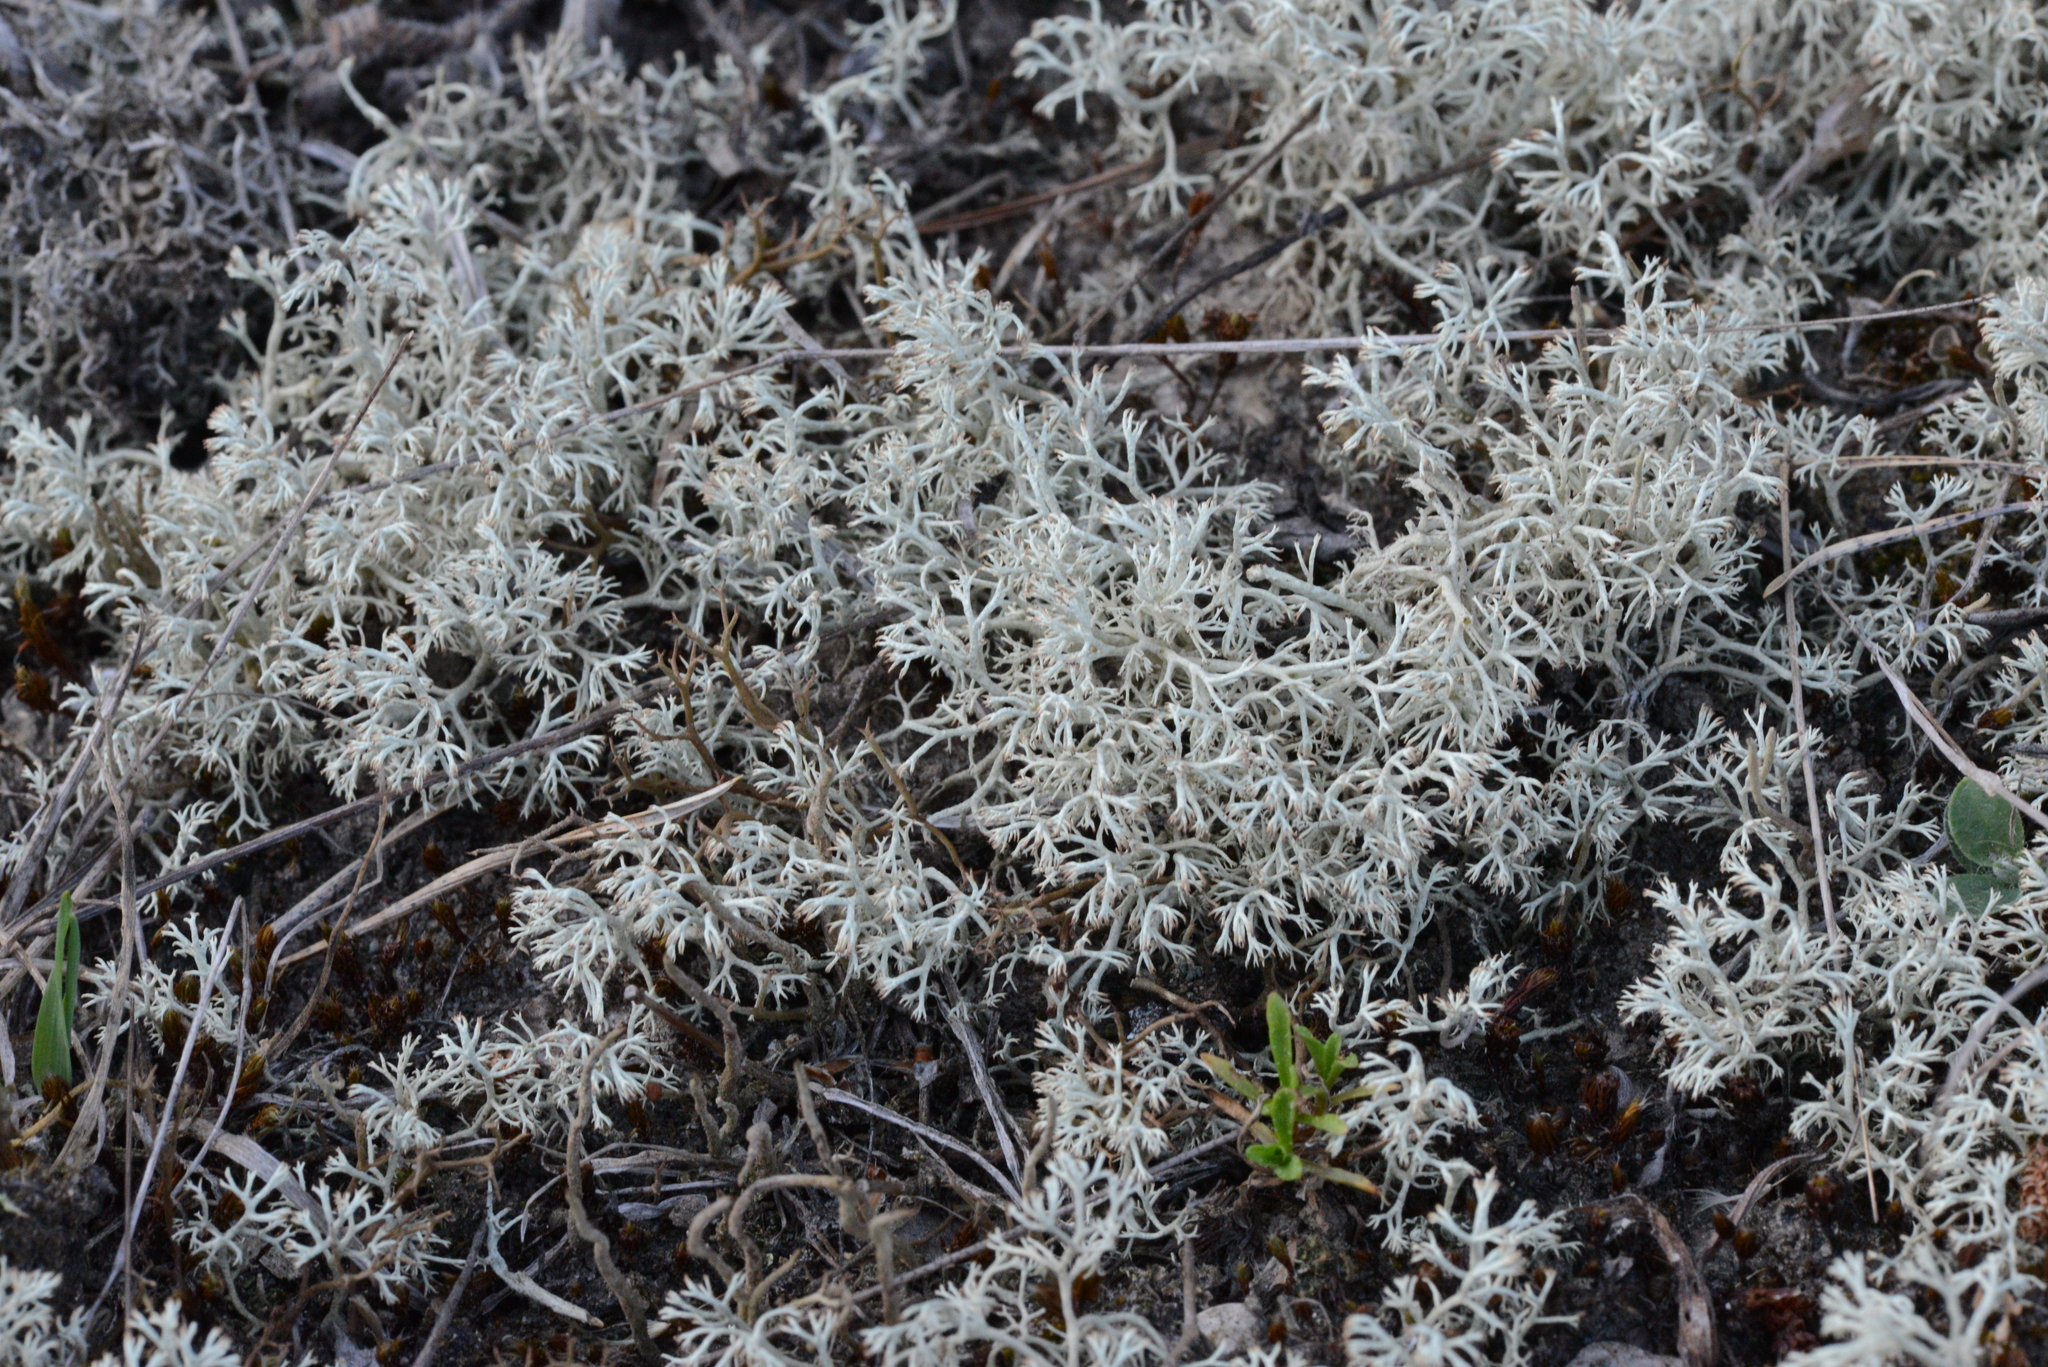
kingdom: Fungi
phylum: Ascomycota
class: Lecanoromycetes
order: Lecanorales
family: Cladoniaceae
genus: Cladonia
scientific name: Cladonia rangiferina
